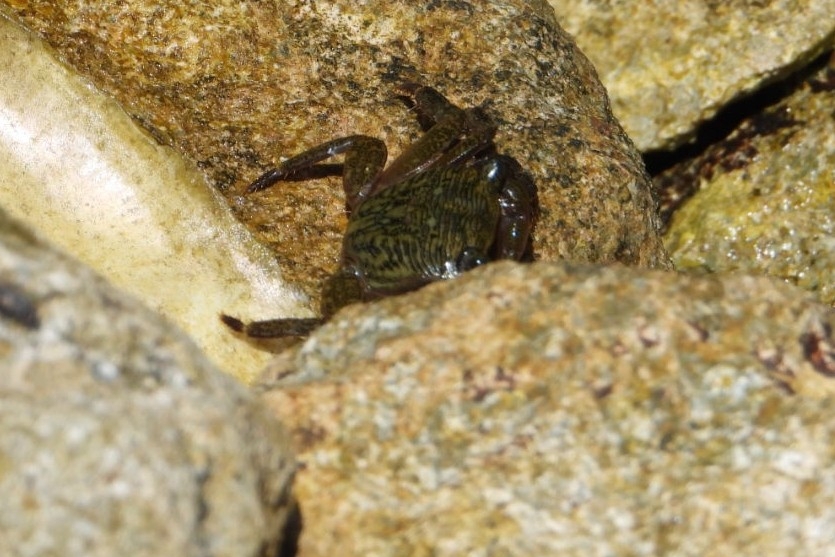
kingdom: Animalia
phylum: Arthropoda
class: Malacostraca
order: Decapoda
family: Grapsidae
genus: Pachygrapsus
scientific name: Pachygrapsus crassipes
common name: Striped shore crab
